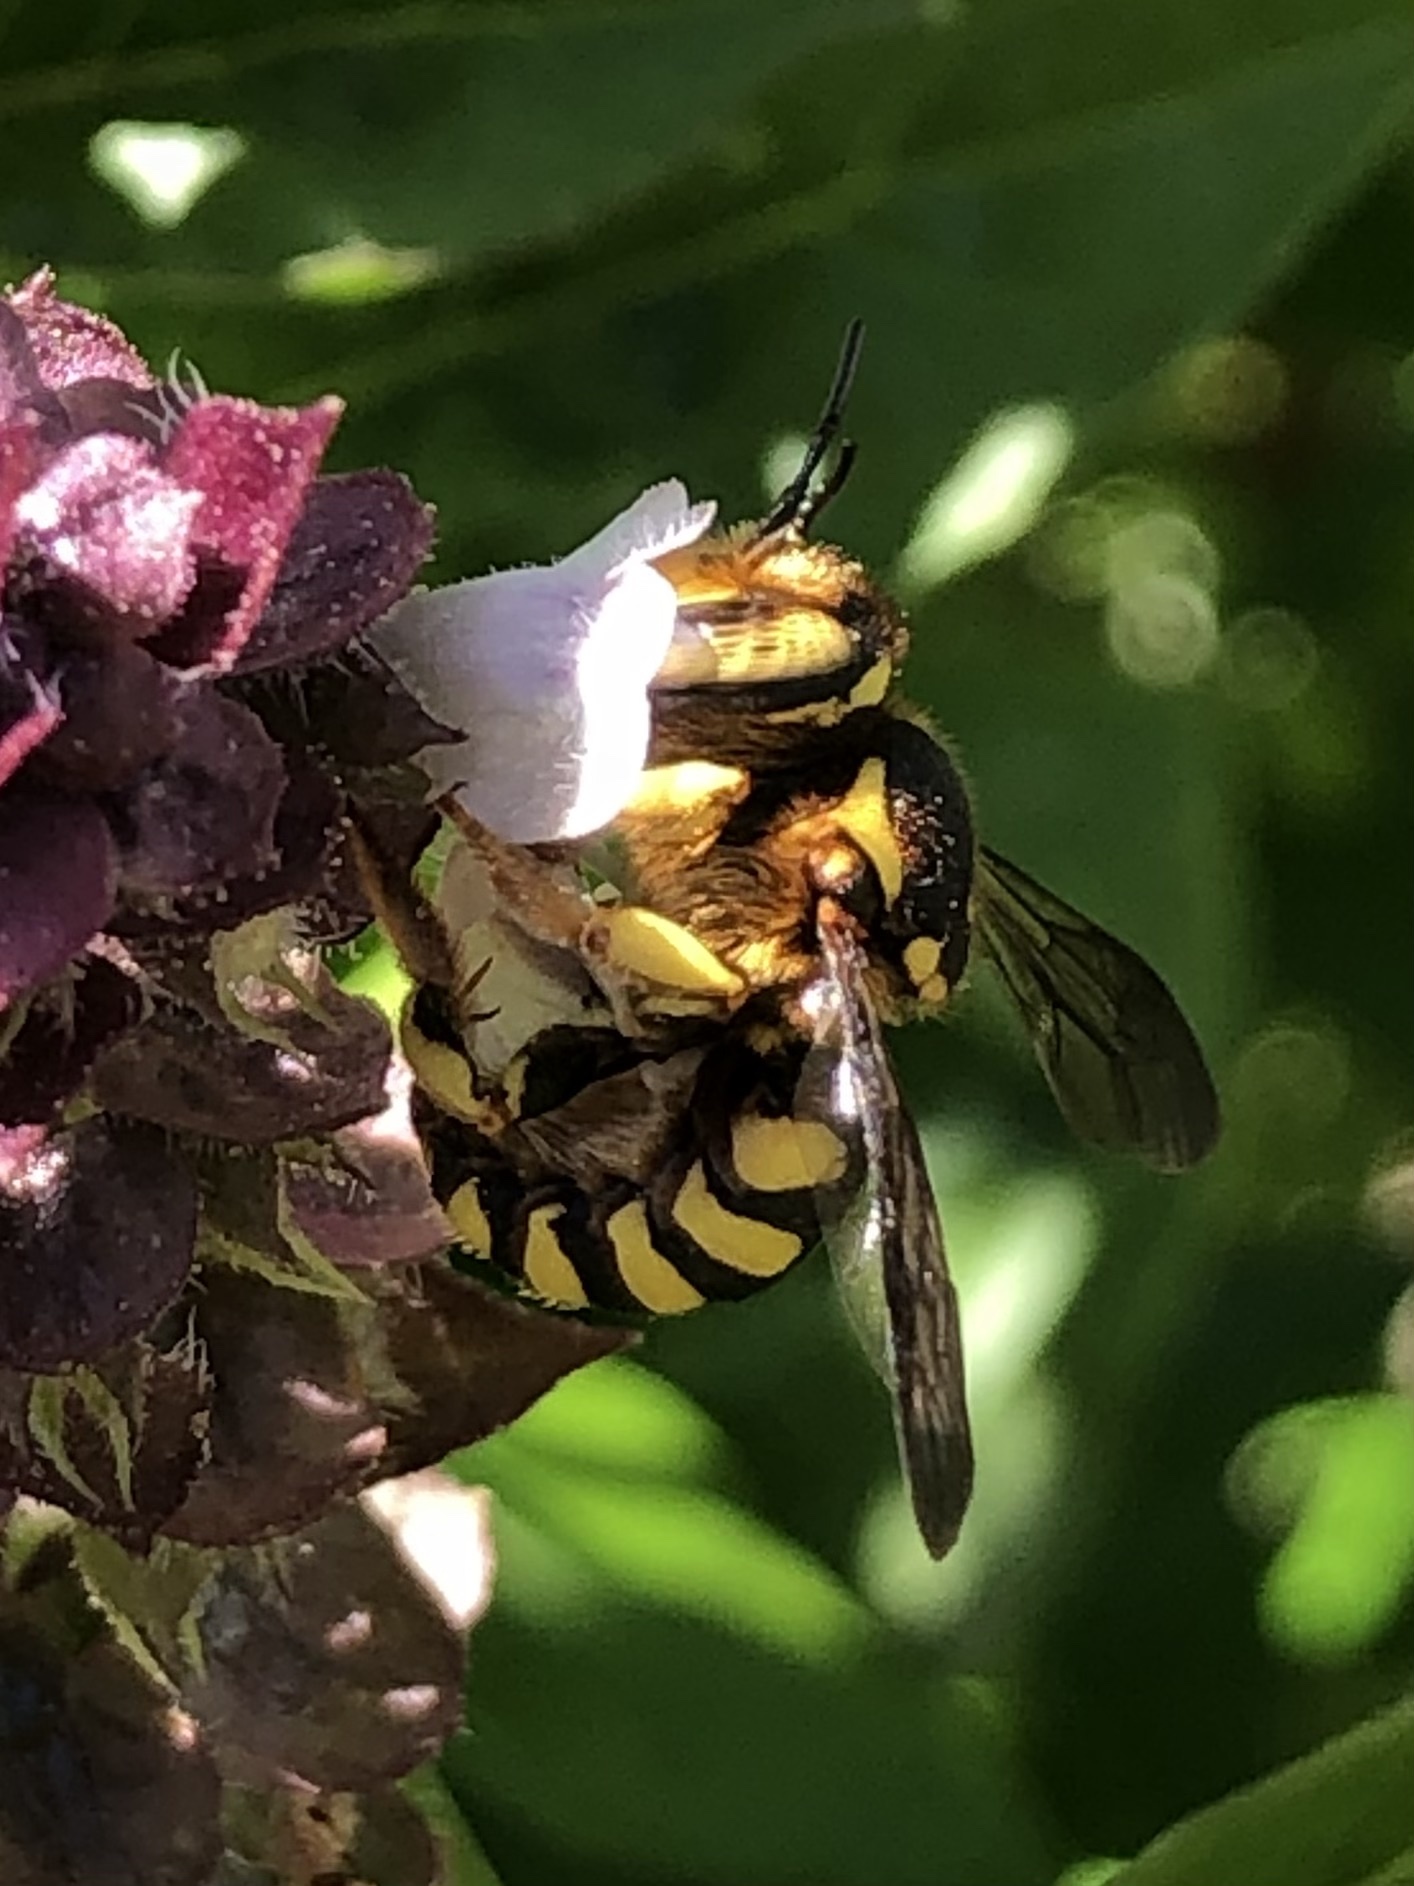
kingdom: Animalia
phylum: Arthropoda
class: Insecta
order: Hymenoptera
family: Megachilidae
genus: Anthidium
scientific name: Anthidium florentinum
